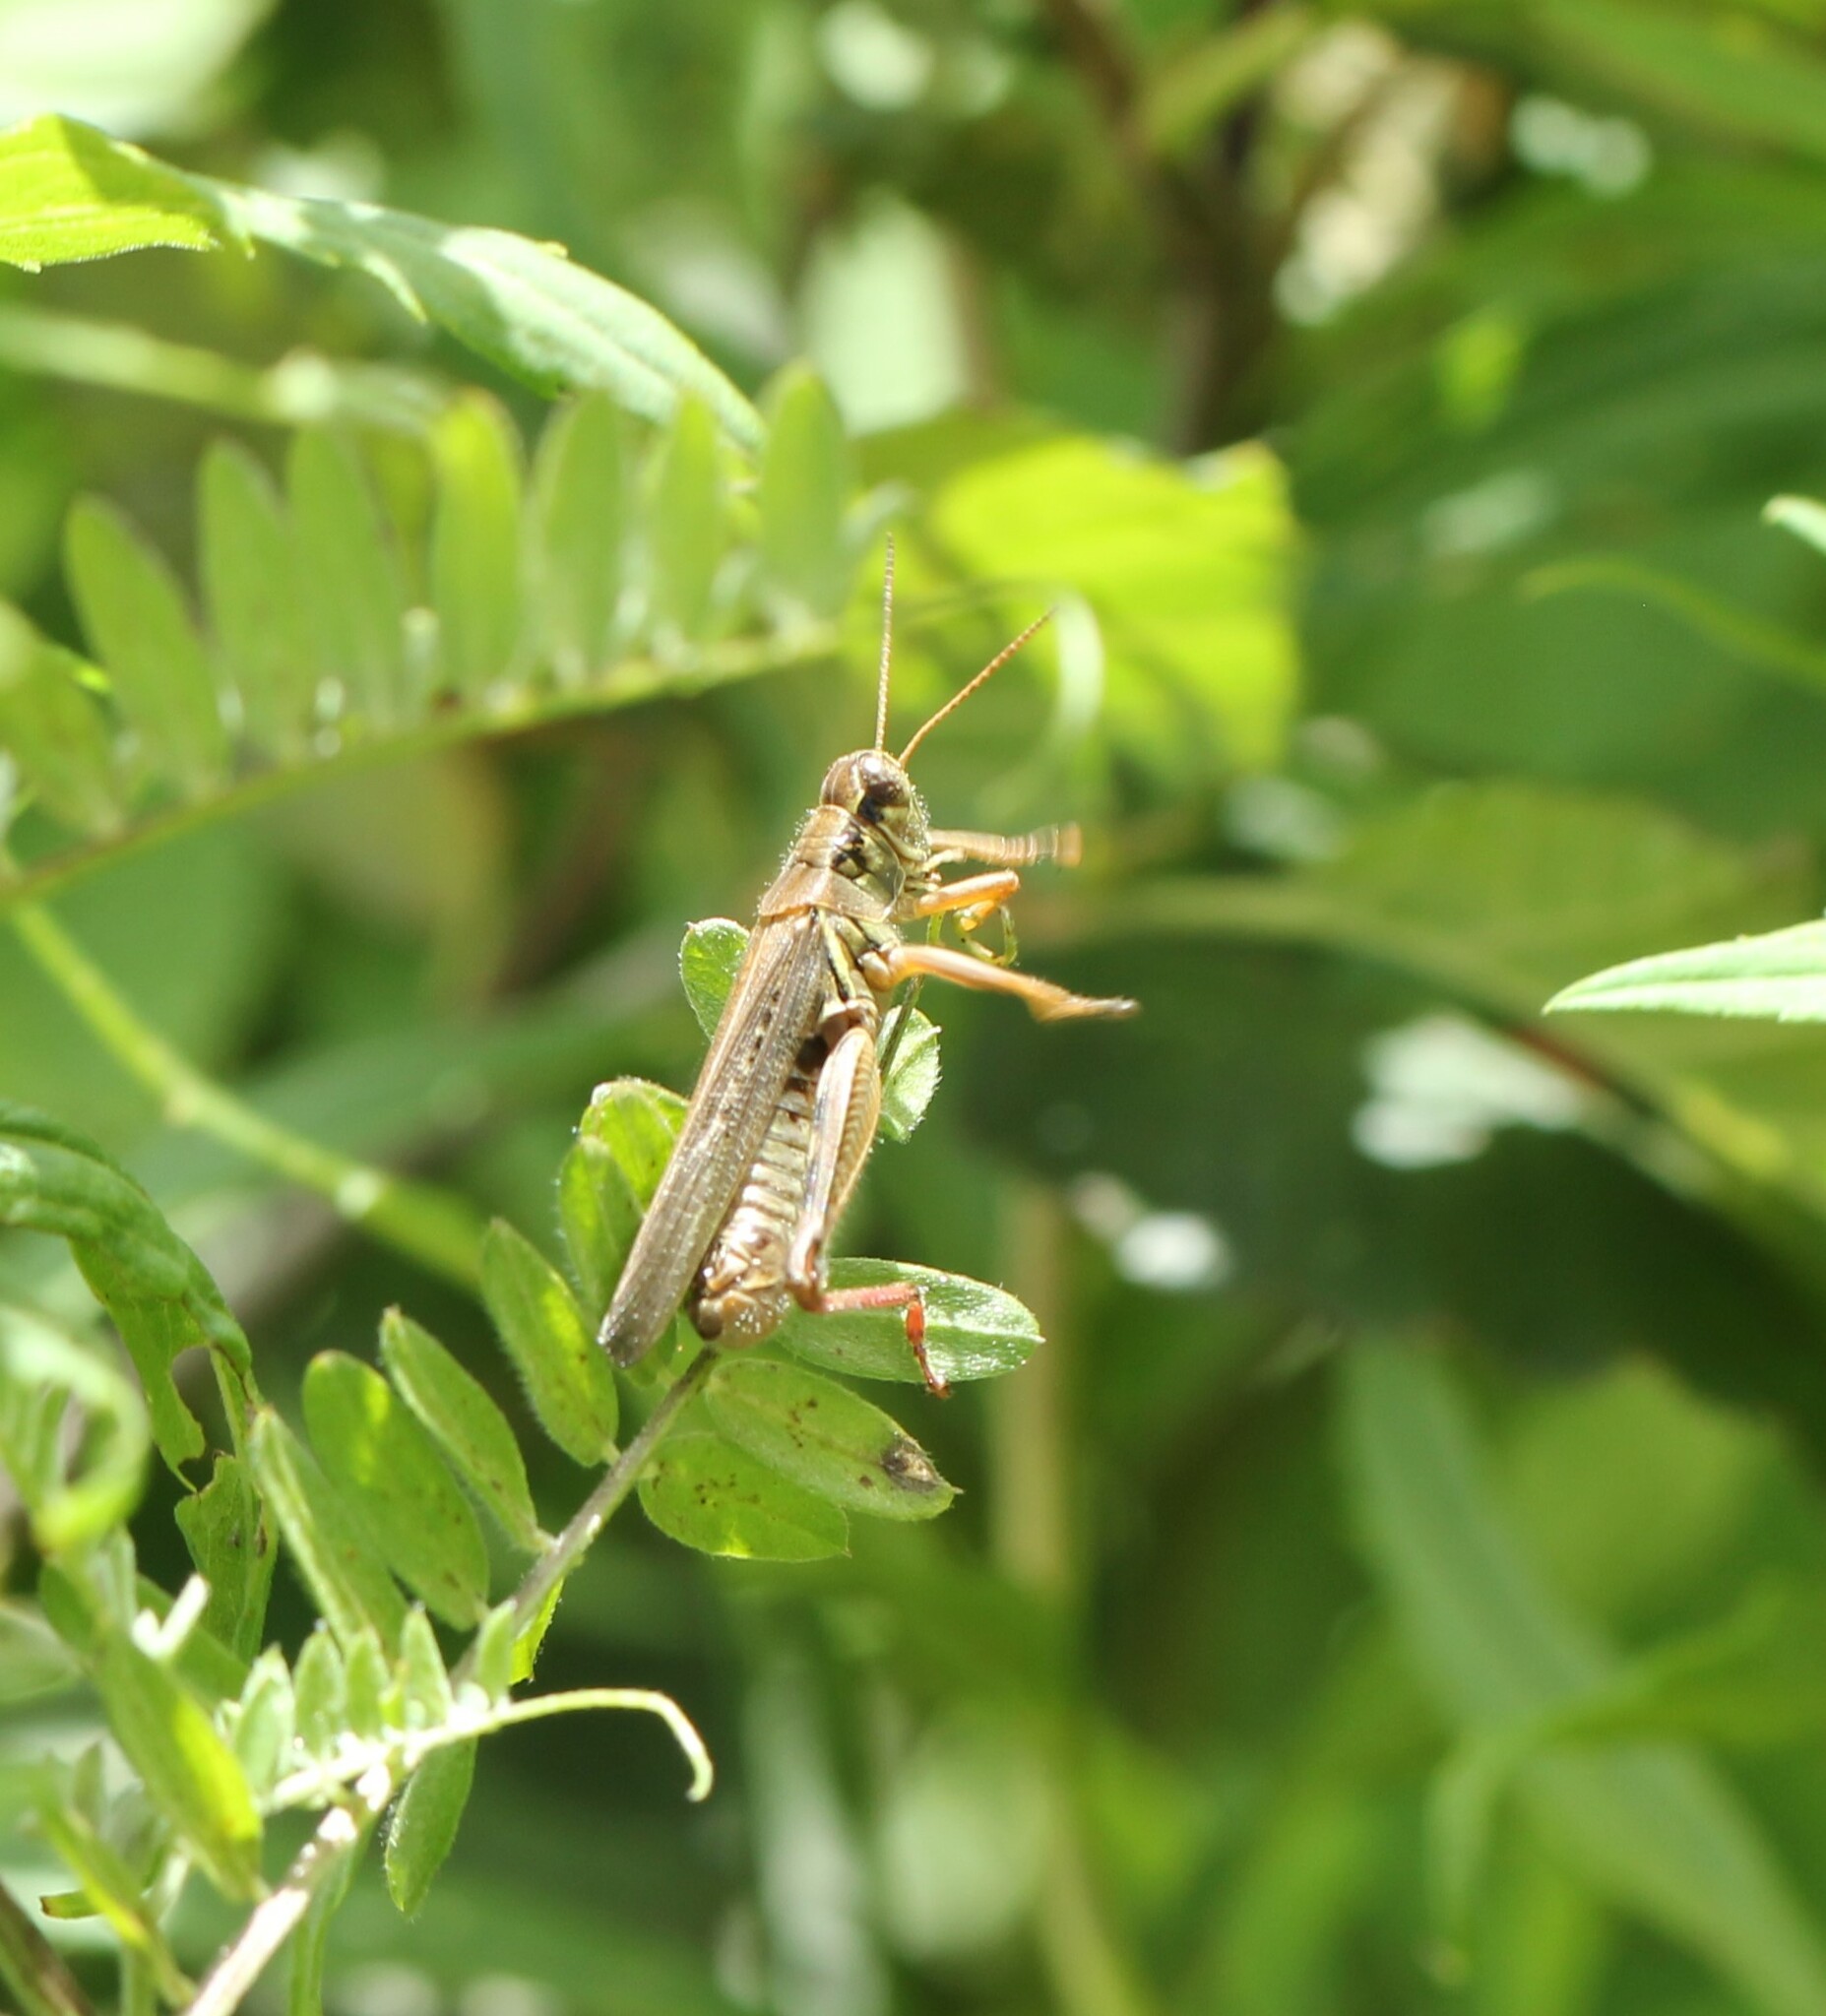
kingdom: Animalia
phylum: Arthropoda
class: Insecta
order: Orthoptera
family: Acrididae
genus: Melanoplus
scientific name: Melanoplus femurrubrum
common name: Red-legged grasshopper
